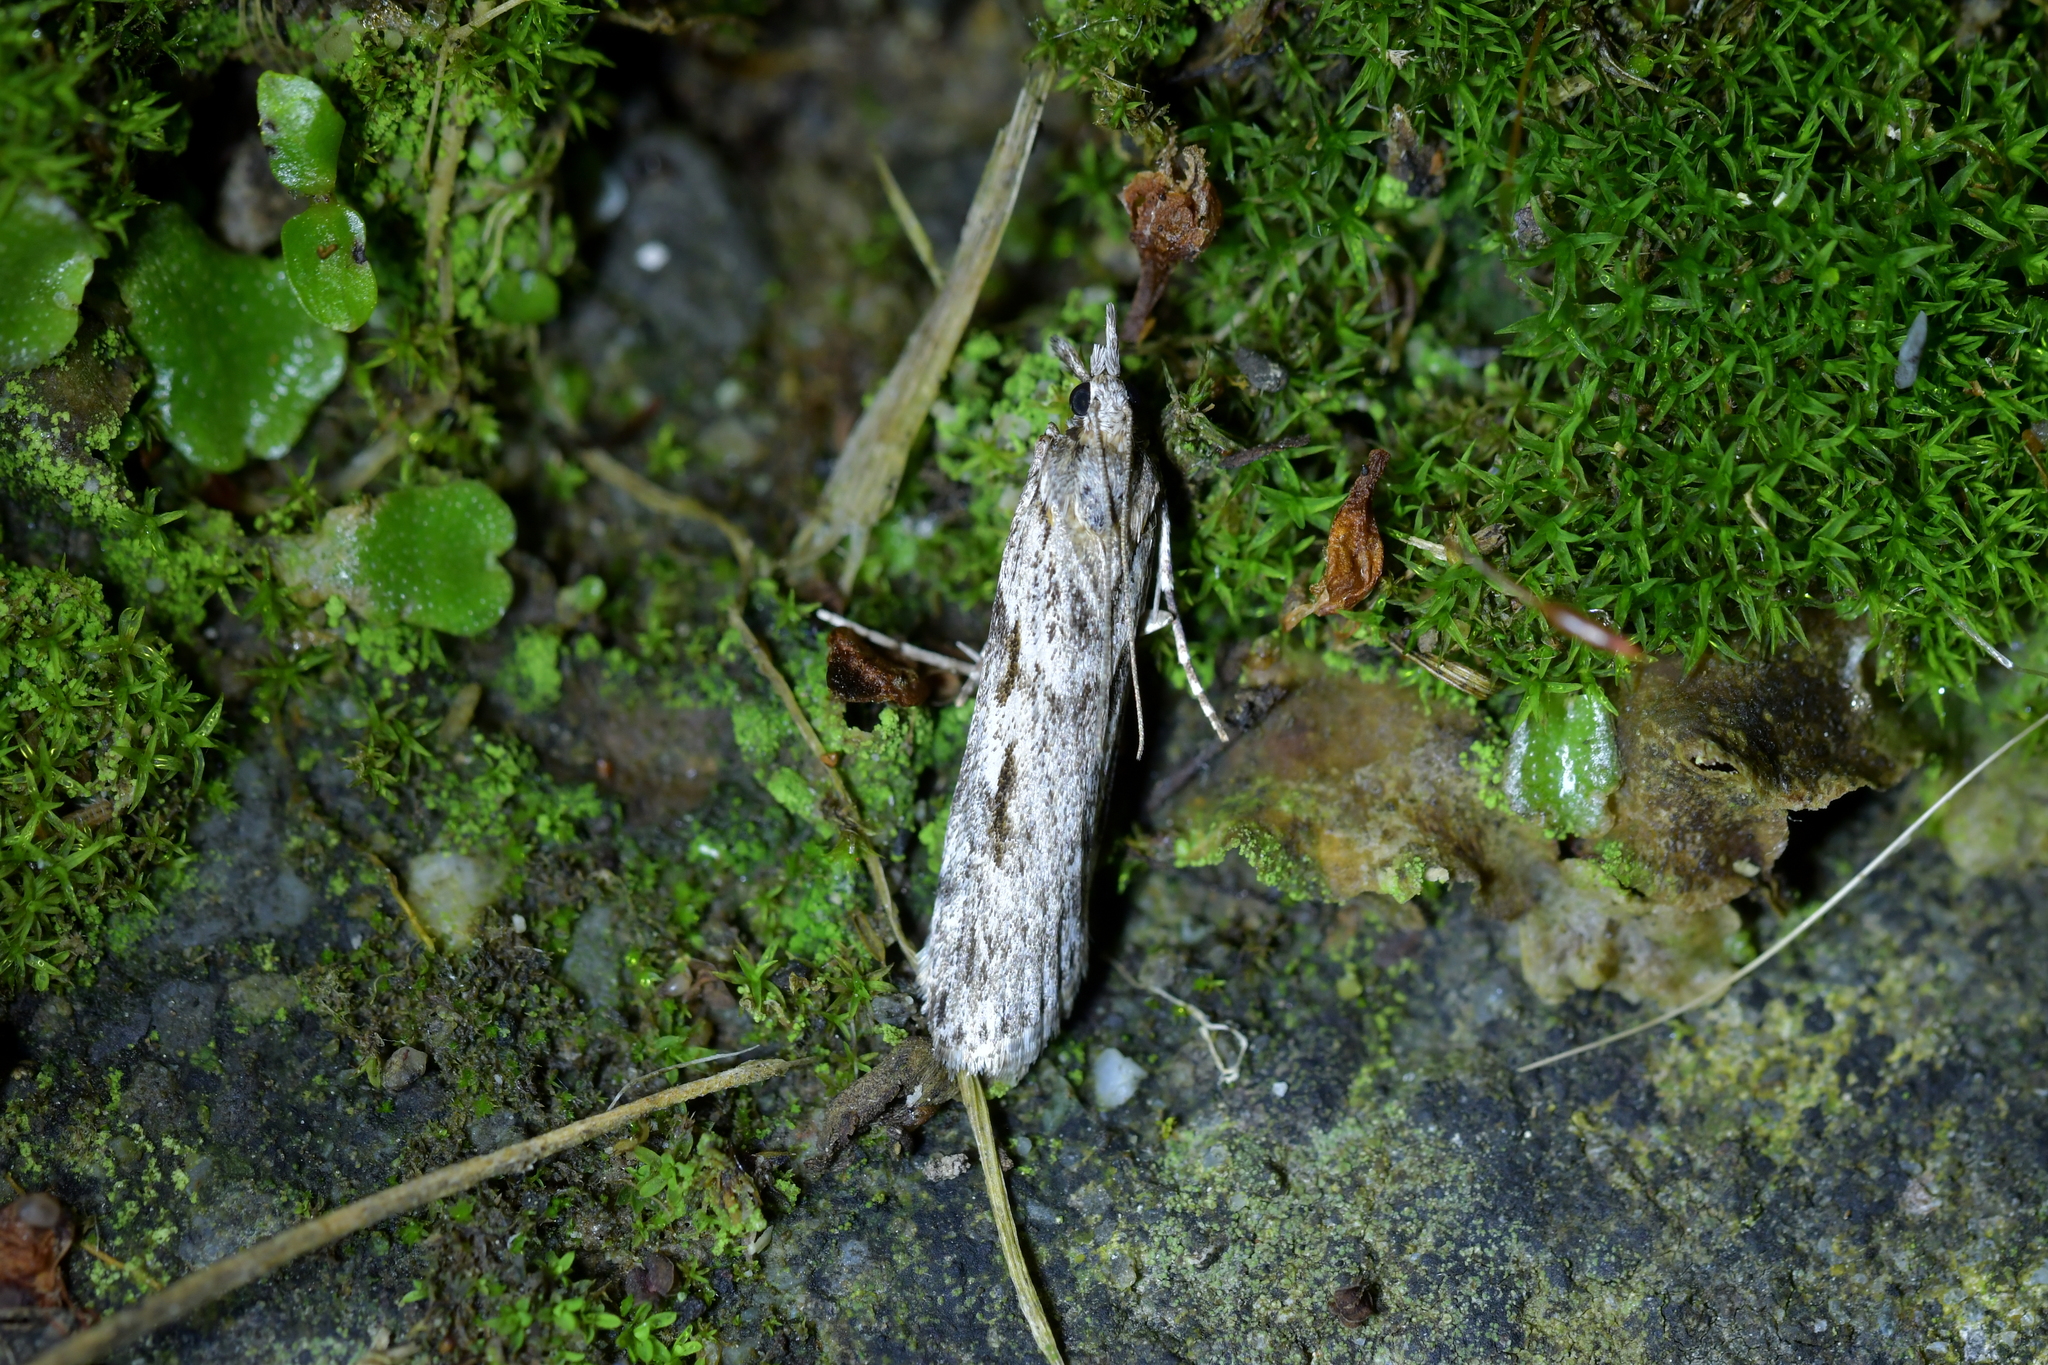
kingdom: Animalia
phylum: Arthropoda
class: Insecta
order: Lepidoptera
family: Crambidae
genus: Scoparia
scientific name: Scoparia halopis
